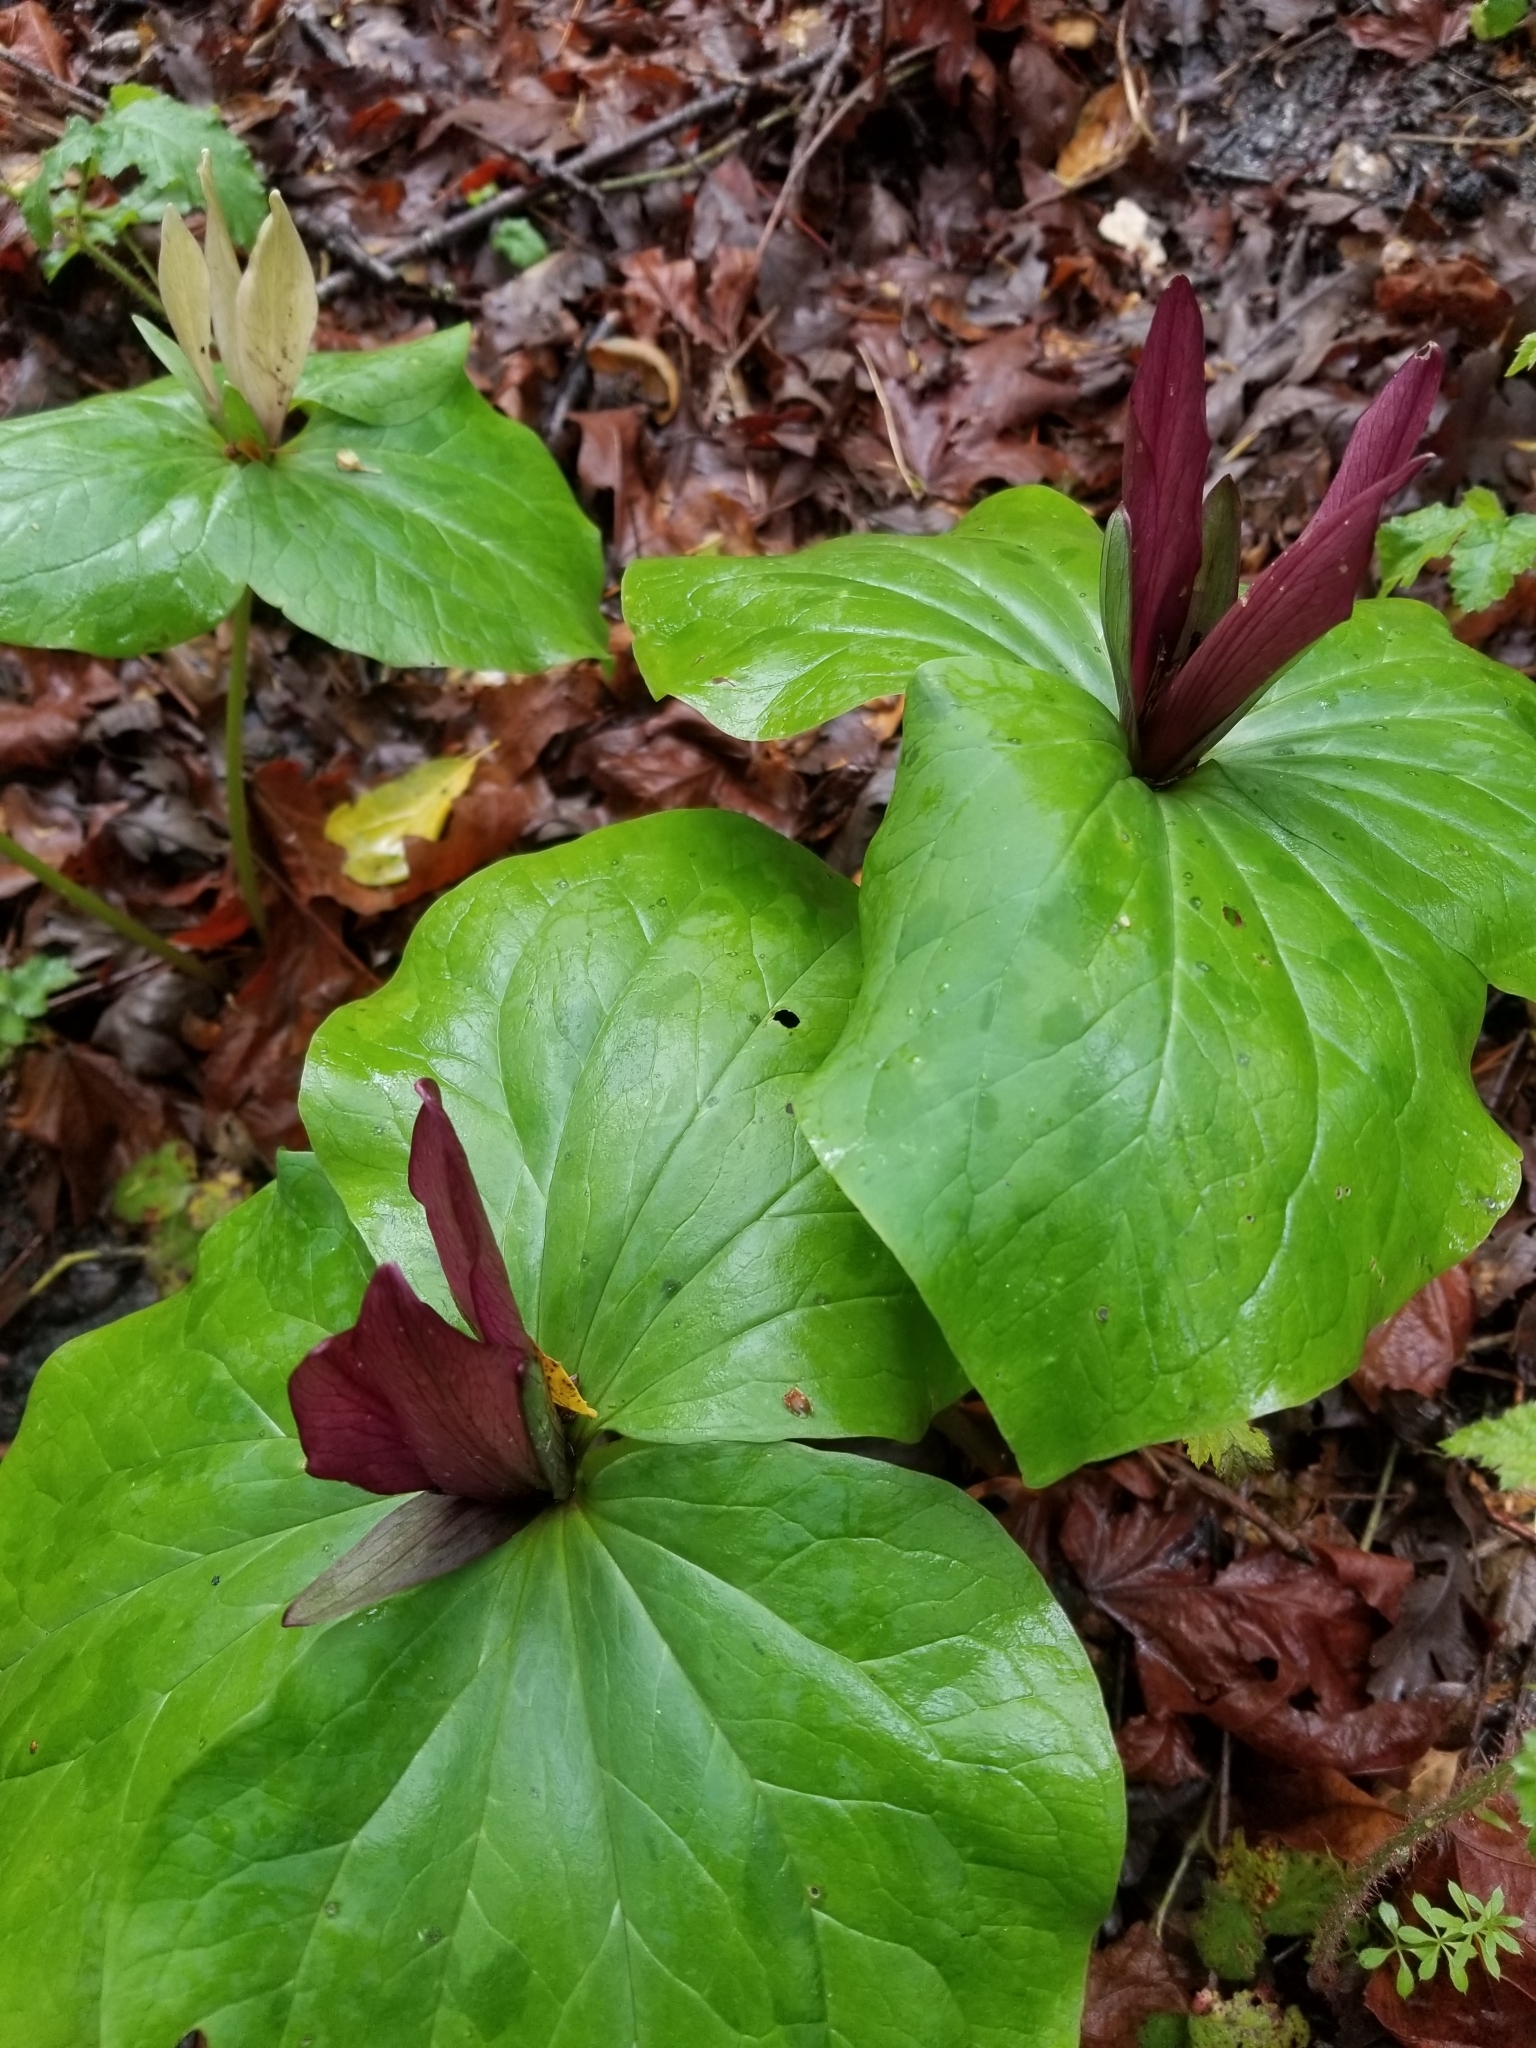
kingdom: Plantae
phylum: Tracheophyta
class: Liliopsida
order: Liliales
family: Melanthiaceae
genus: Trillium
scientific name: Trillium chloropetalum
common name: Giant trillium
